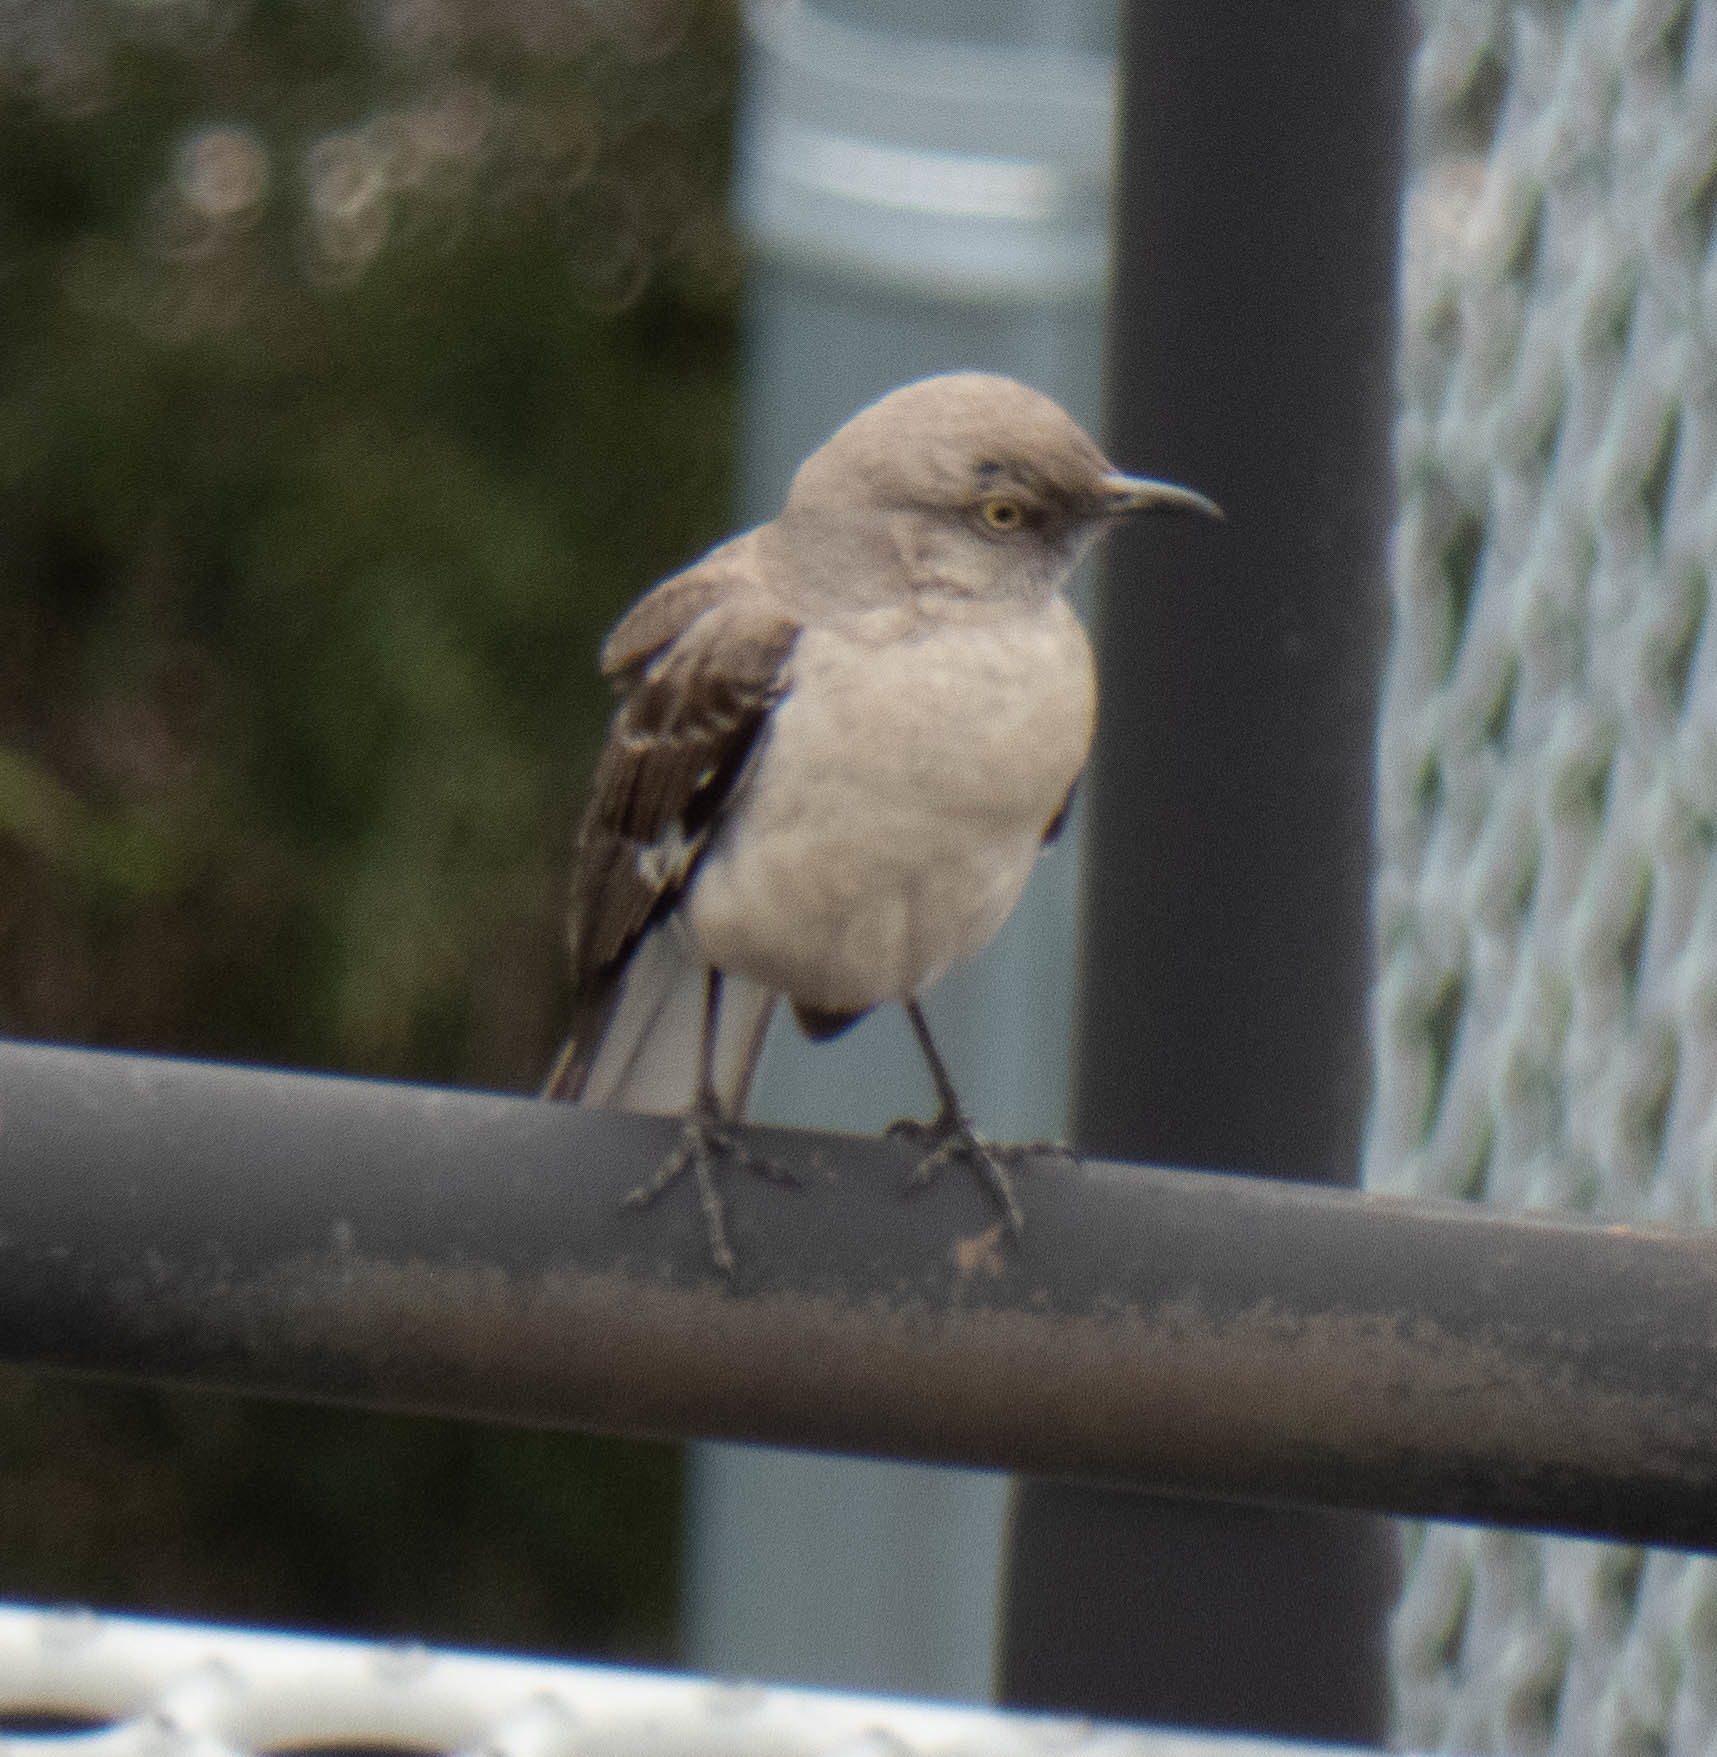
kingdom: Animalia
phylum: Chordata
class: Aves
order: Passeriformes
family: Mimidae
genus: Mimus
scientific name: Mimus polyglottos
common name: Northern mockingbird
